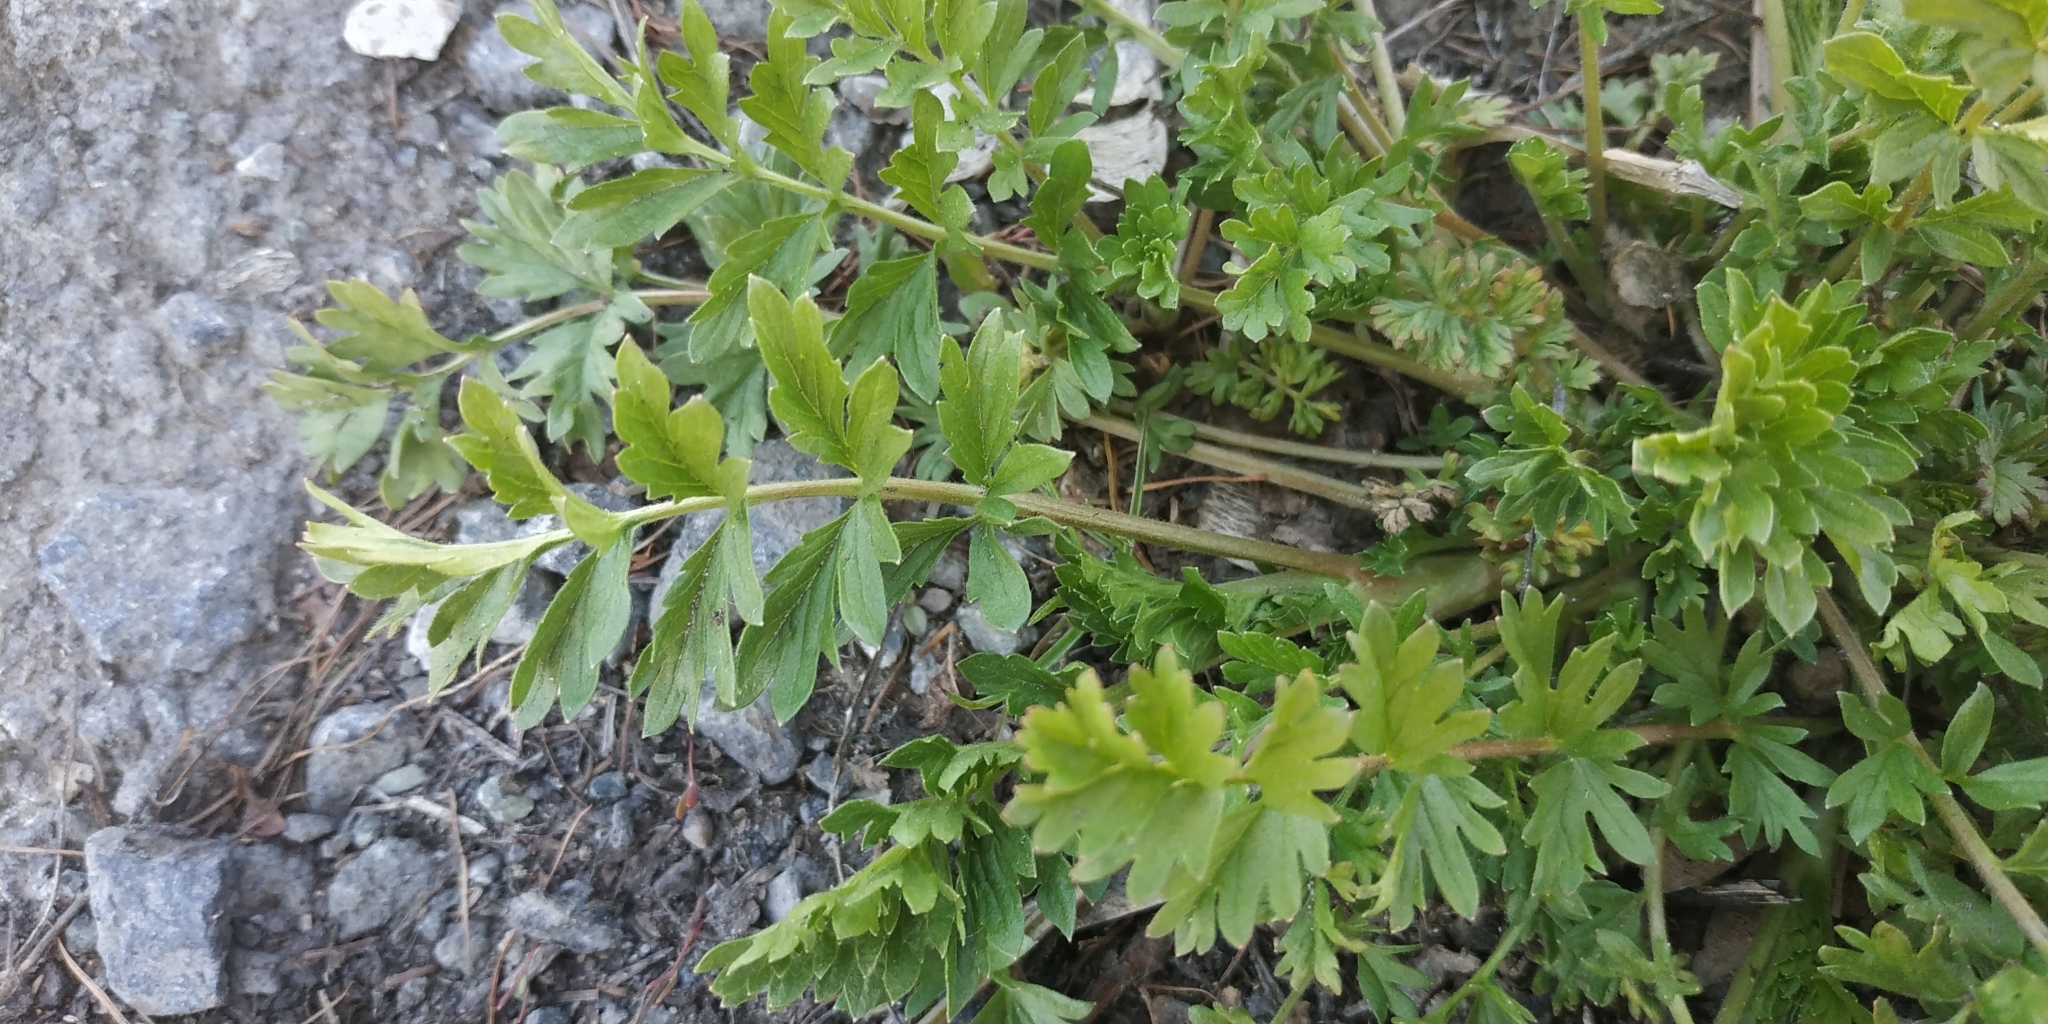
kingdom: Plantae
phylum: Tracheophyta
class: Magnoliopsida
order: Rosales
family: Rosaceae
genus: Potentilla
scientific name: Potentilla supina
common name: Prostrate cinquefoil
